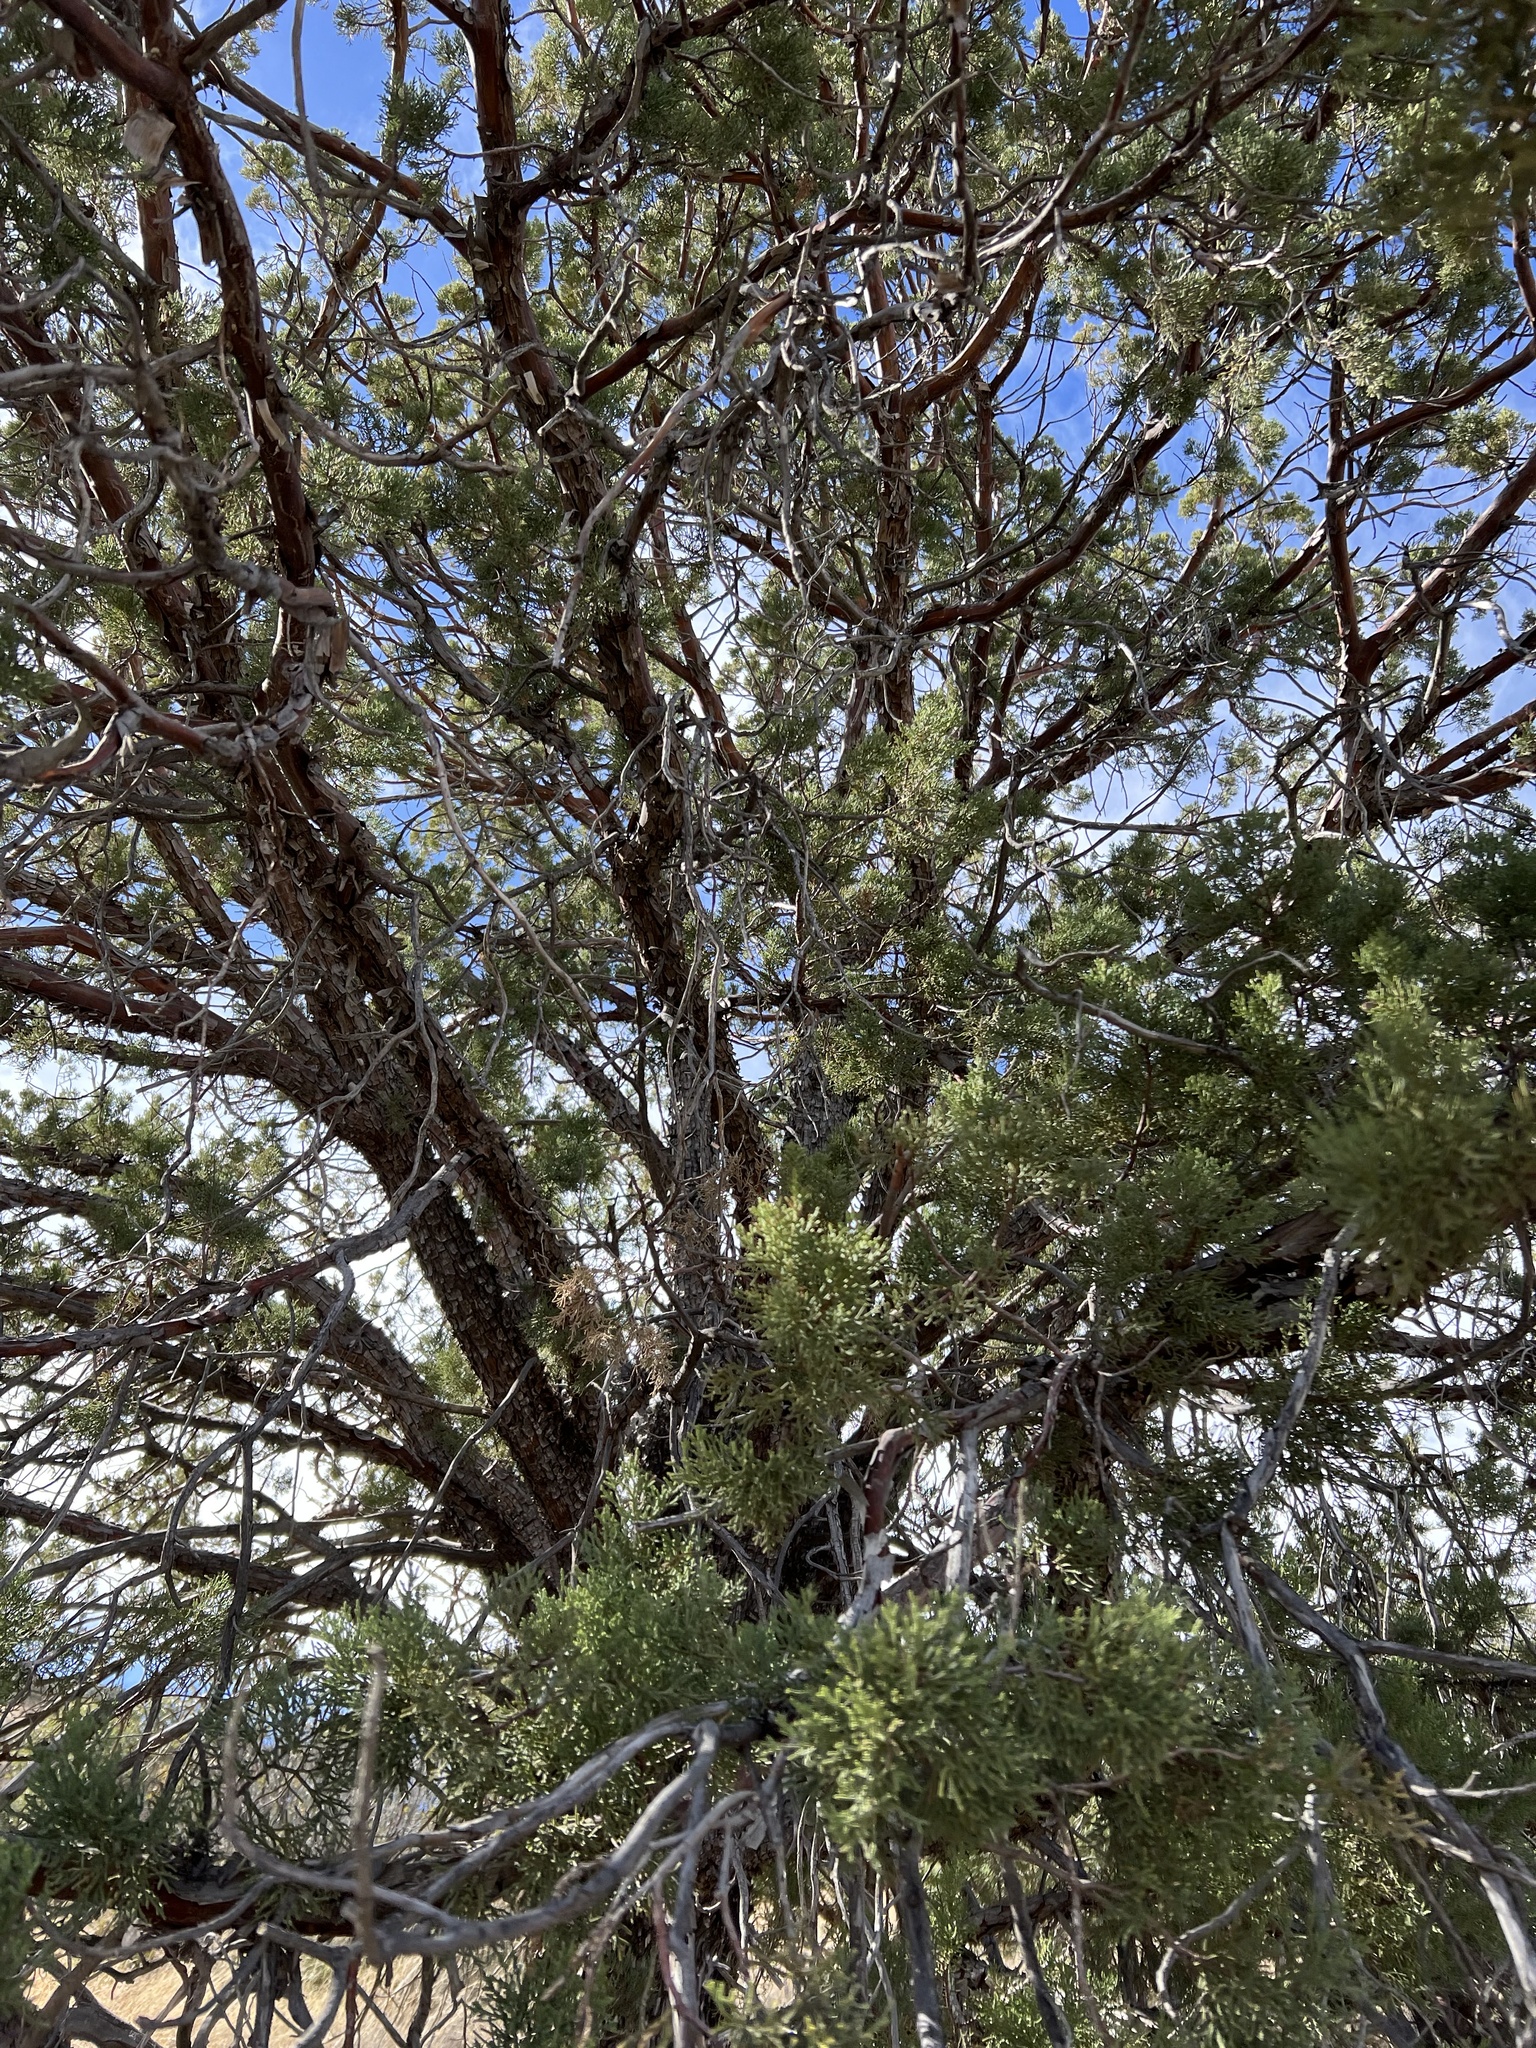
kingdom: Plantae
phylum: Tracheophyta
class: Pinopsida
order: Pinales
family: Cupressaceae
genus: Juniperus
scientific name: Juniperus deppeana
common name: Alligator juniper
